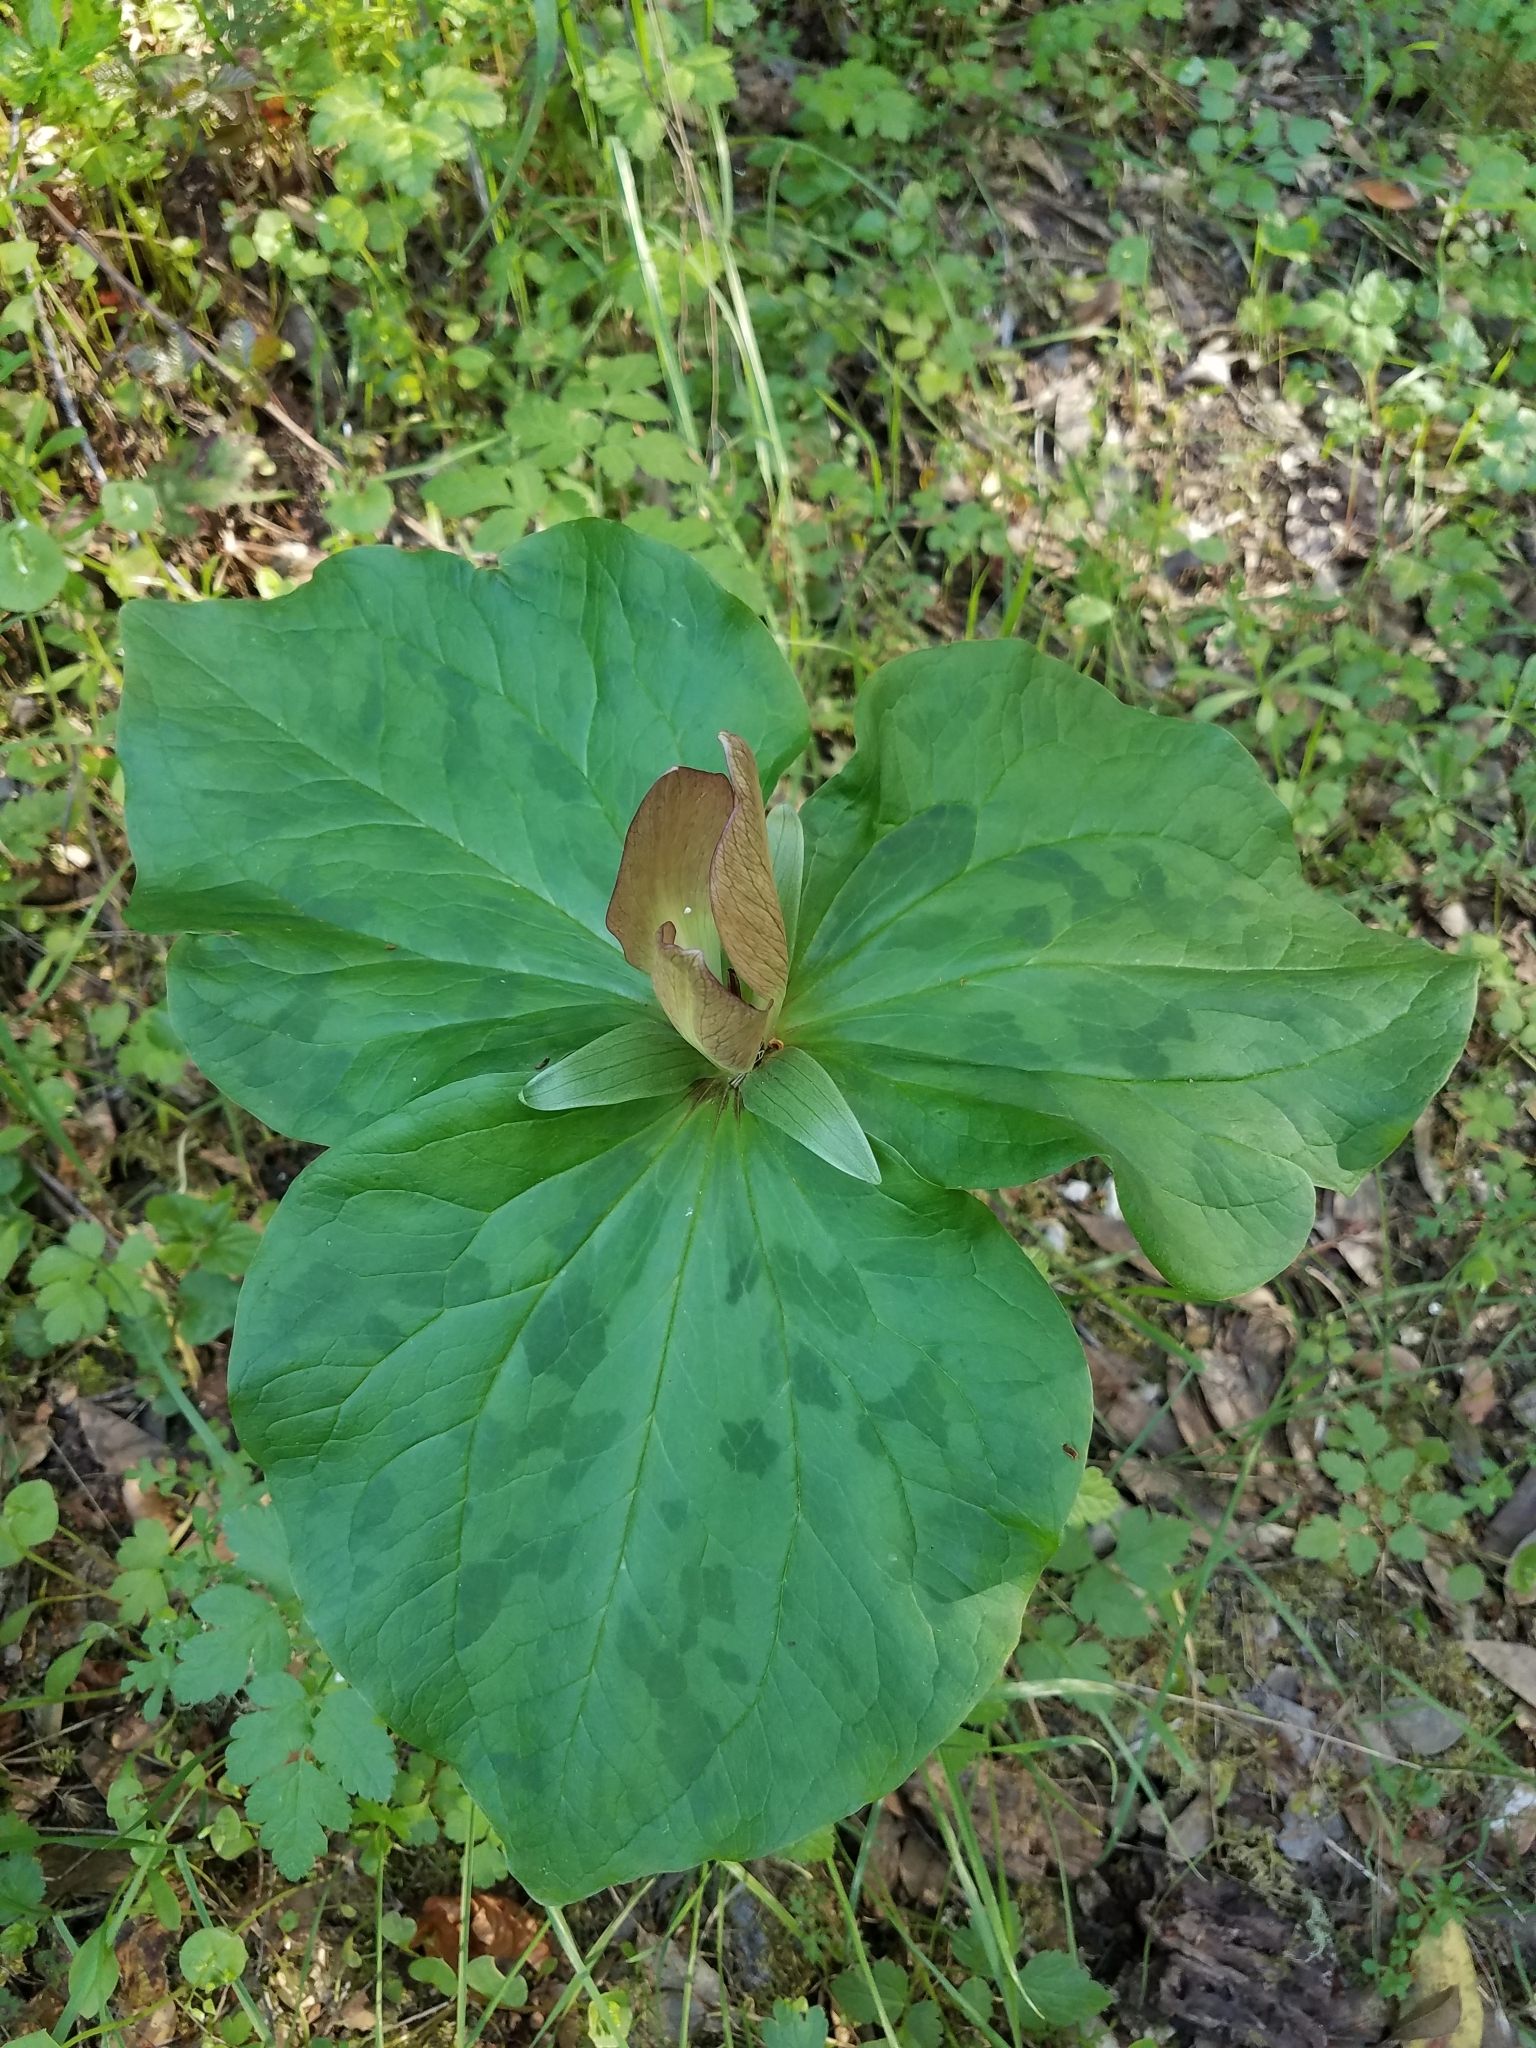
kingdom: Plantae
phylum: Tracheophyta
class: Liliopsida
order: Liliales
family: Melanthiaceae
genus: Trillium
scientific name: Trillium chloropetalum
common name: Giant trillium
